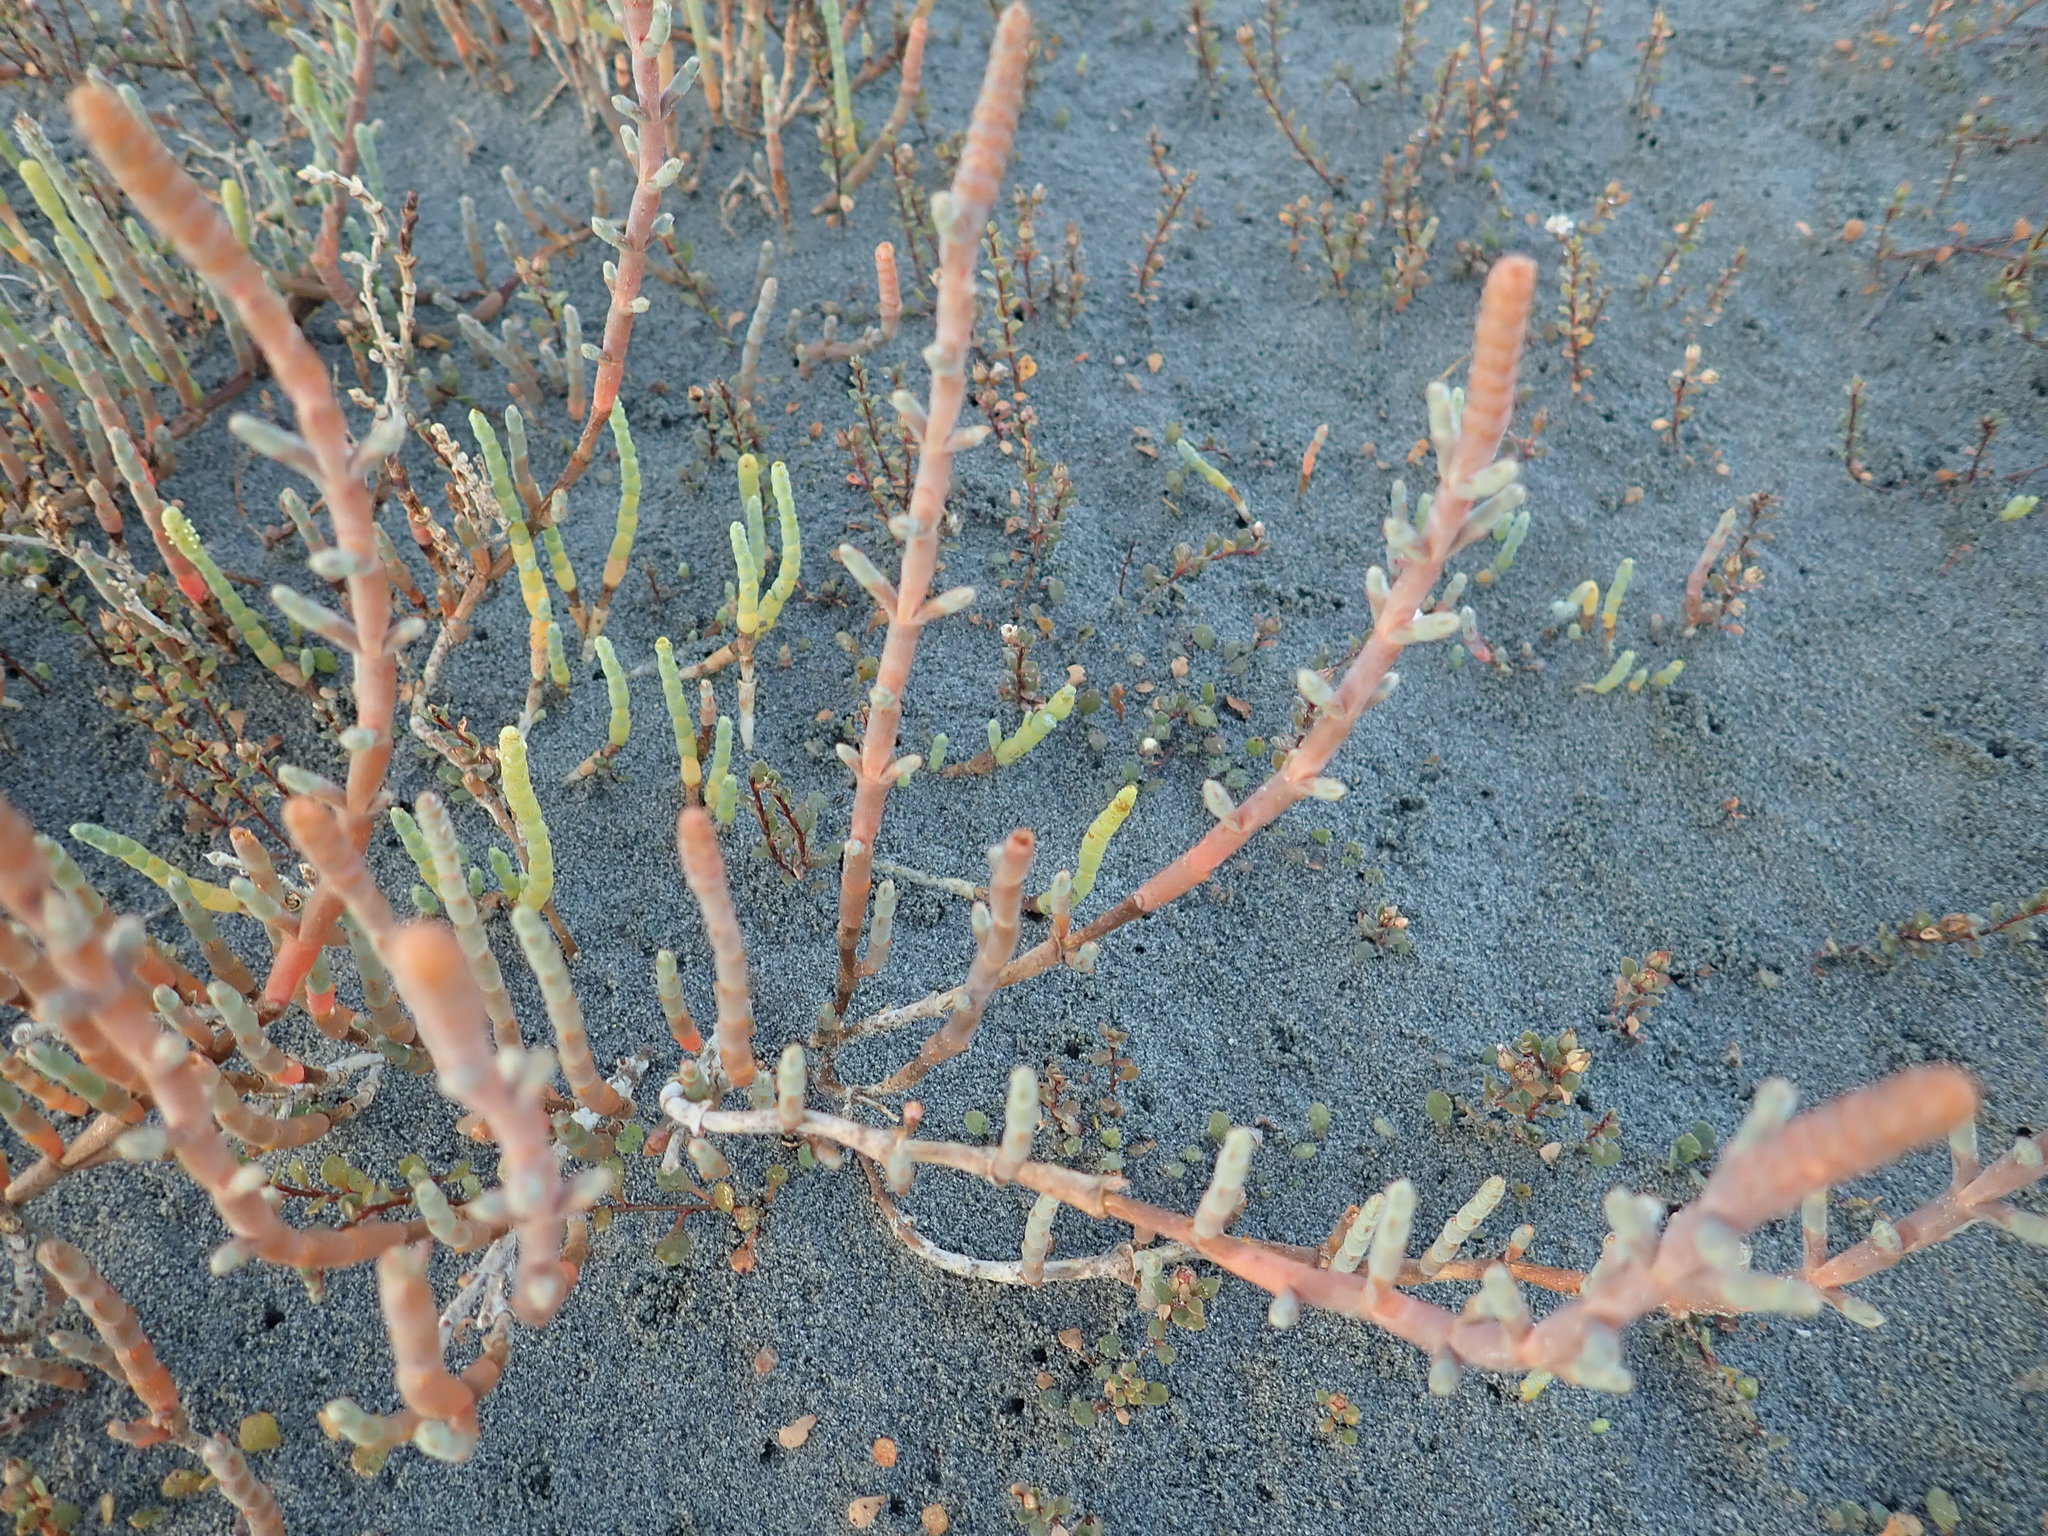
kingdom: Plantae
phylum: Tracheophyta
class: Magnoliopsida
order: Caryophyllales
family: Amaranthaceae
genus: Salicornia
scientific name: Salicornia quinqueflora
